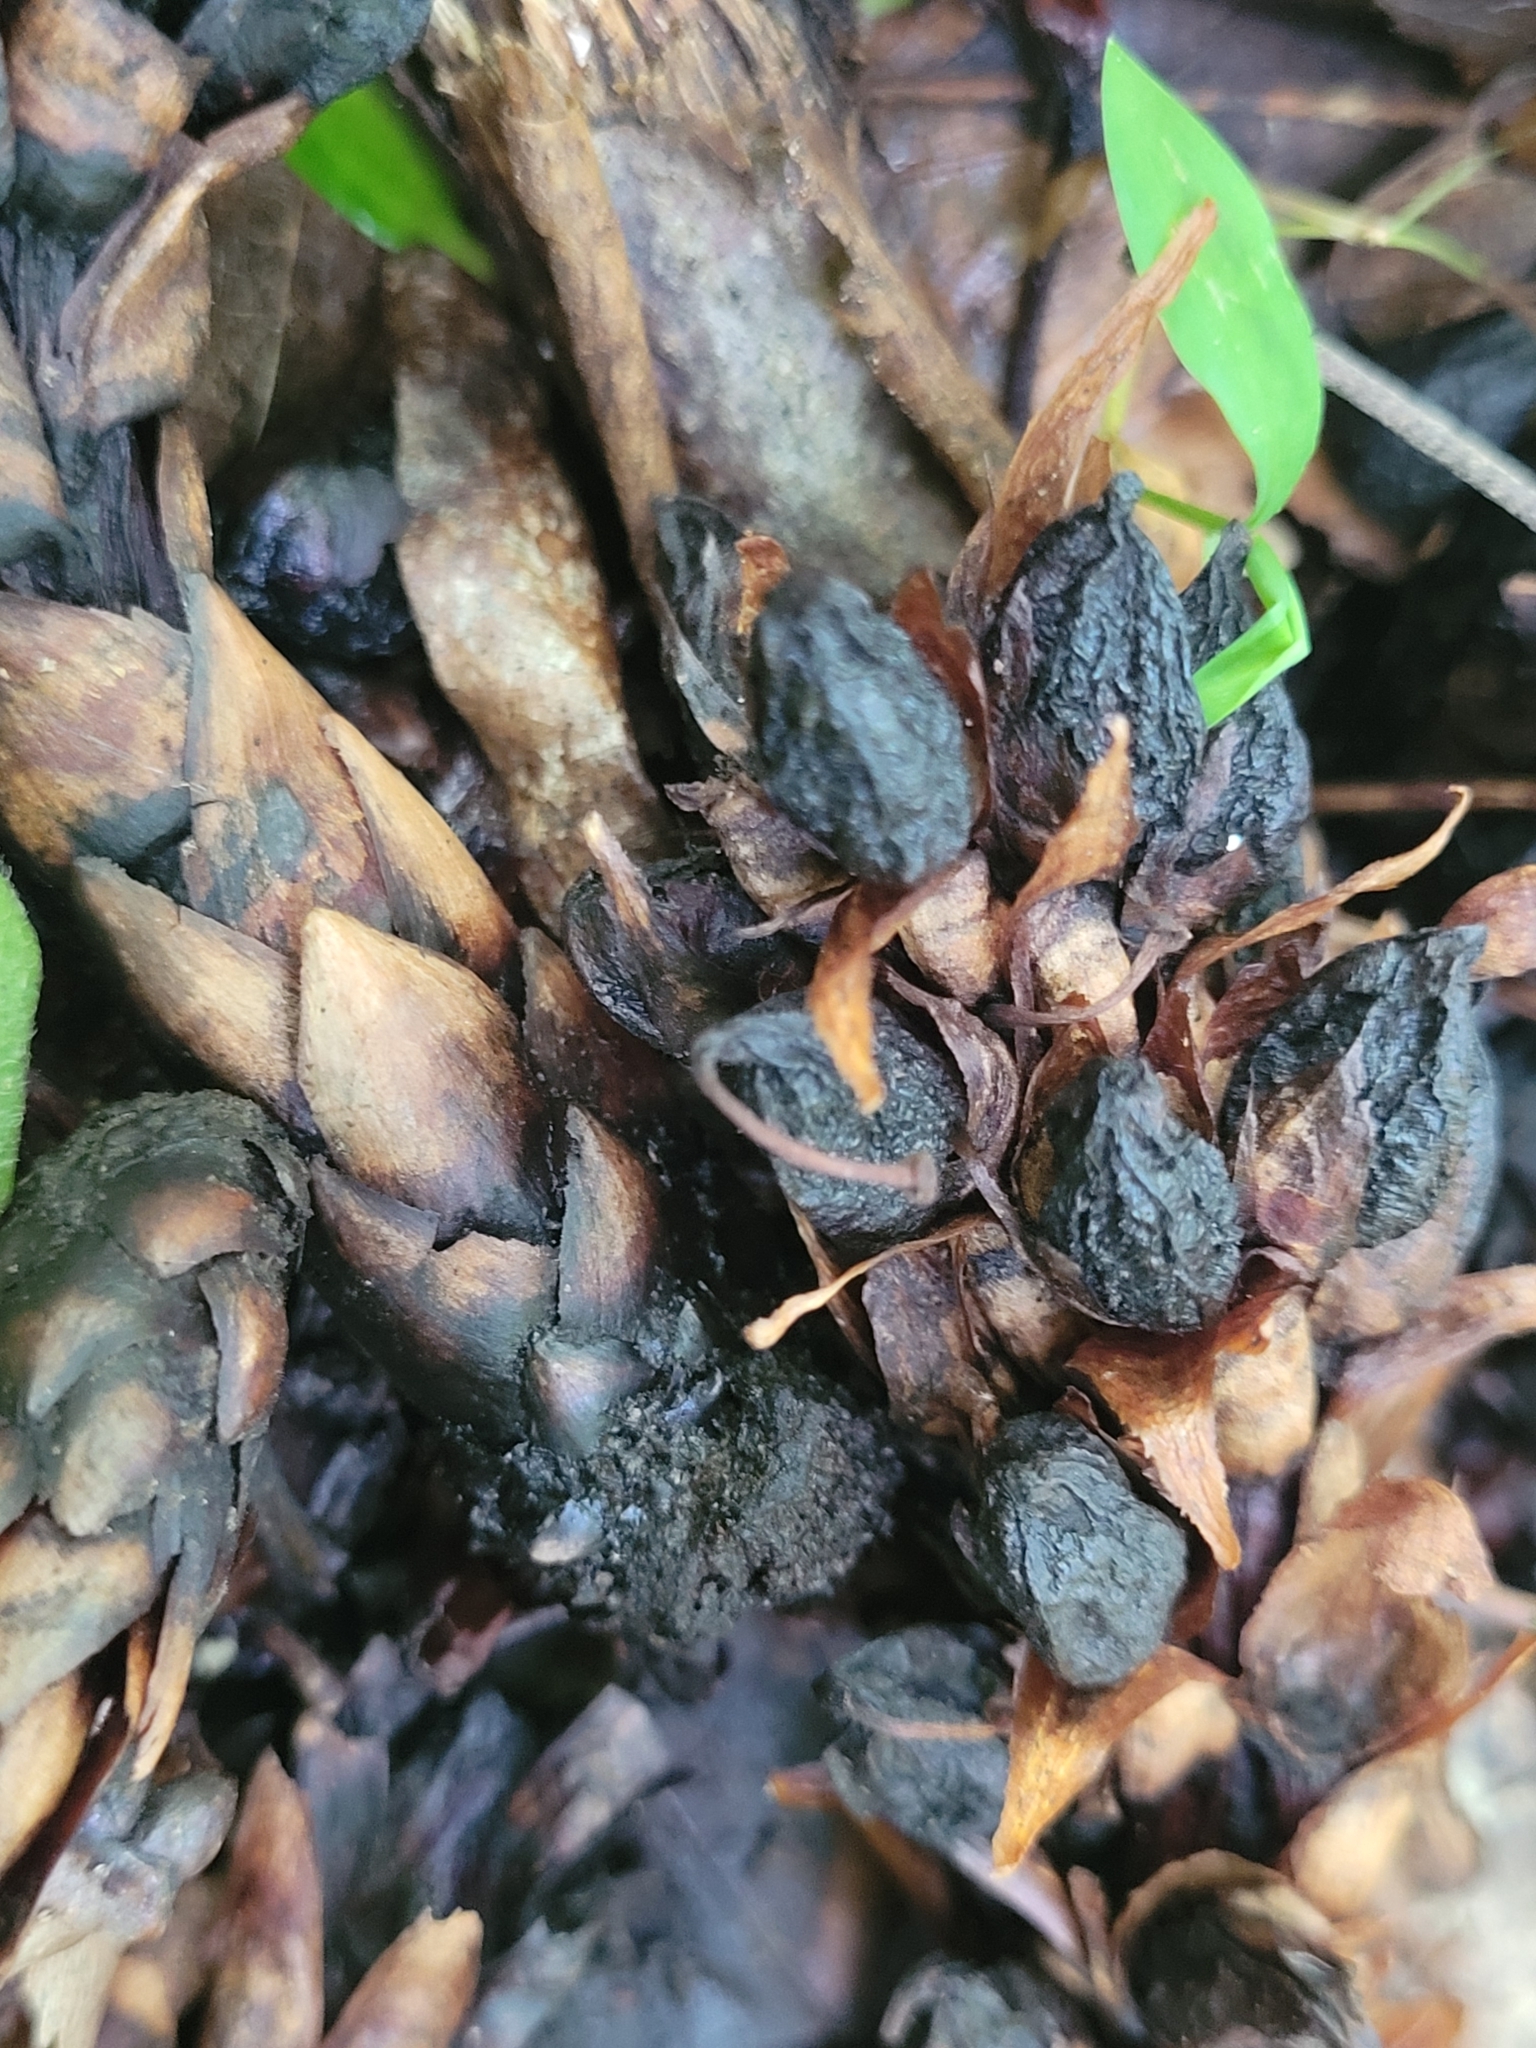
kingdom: Plantae
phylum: Tracheophyta
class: Magnoliopsida
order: Lamiales
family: Orobanchaceae
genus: Conopholis
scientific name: Conopholis americana
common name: American cancer-root
